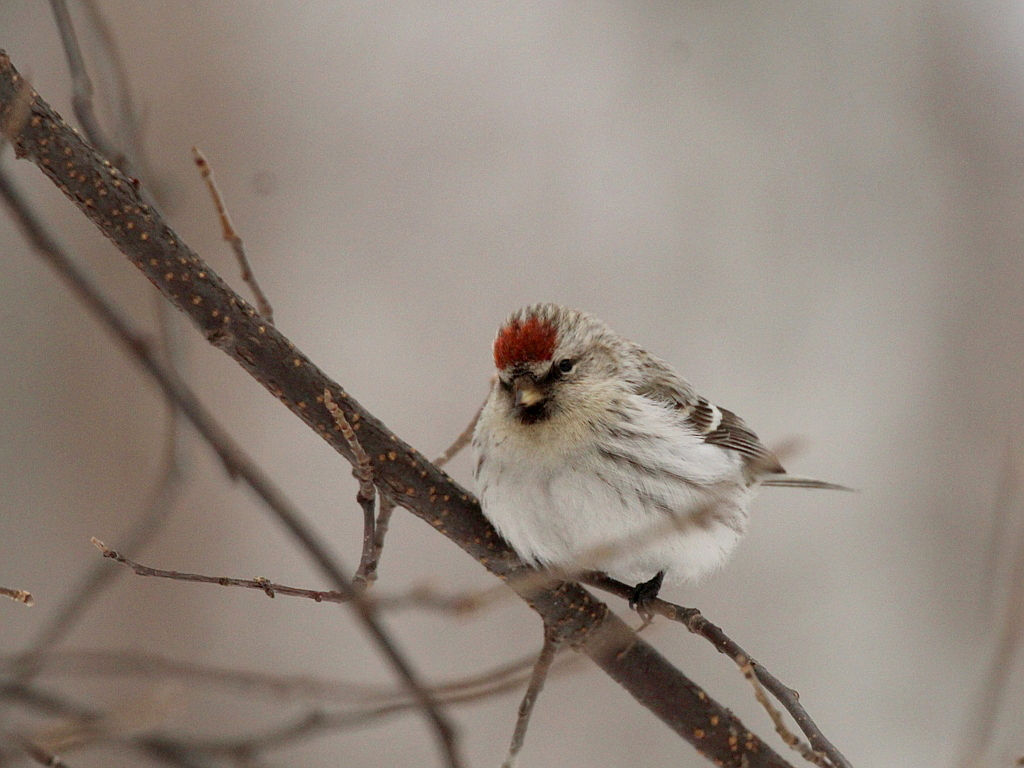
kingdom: Animalia
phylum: Chordata
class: Aves
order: Passeriformes
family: Fringillidae
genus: Acanthis
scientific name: Acanthis hornemanni
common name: Arctic redpoll
